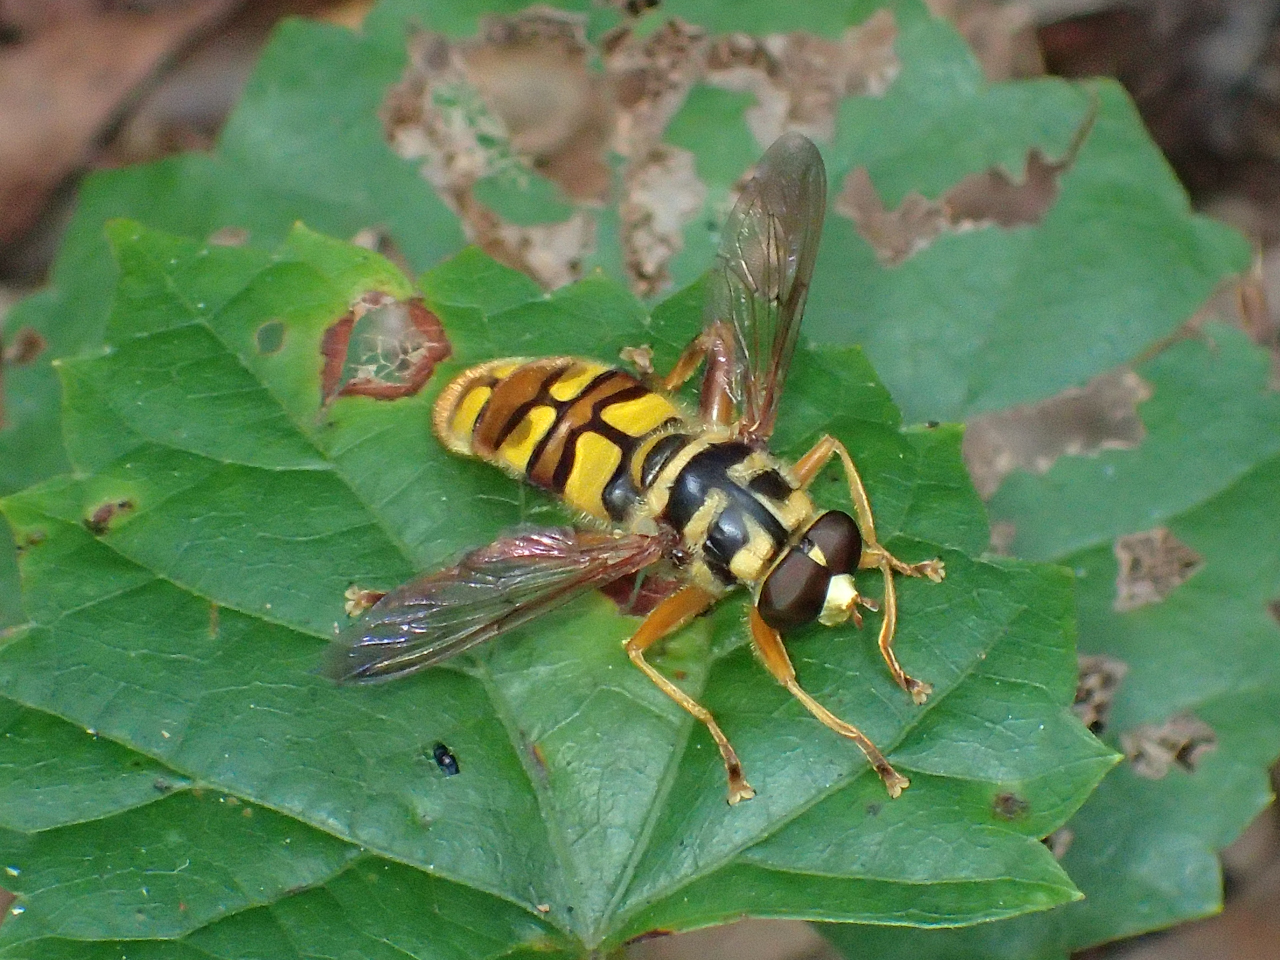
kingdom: Animalia
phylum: Arthropoda
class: Insecta
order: Diptera
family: Syrphidae
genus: Milesia
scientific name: Milesia virginiensis
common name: Virginia giant
